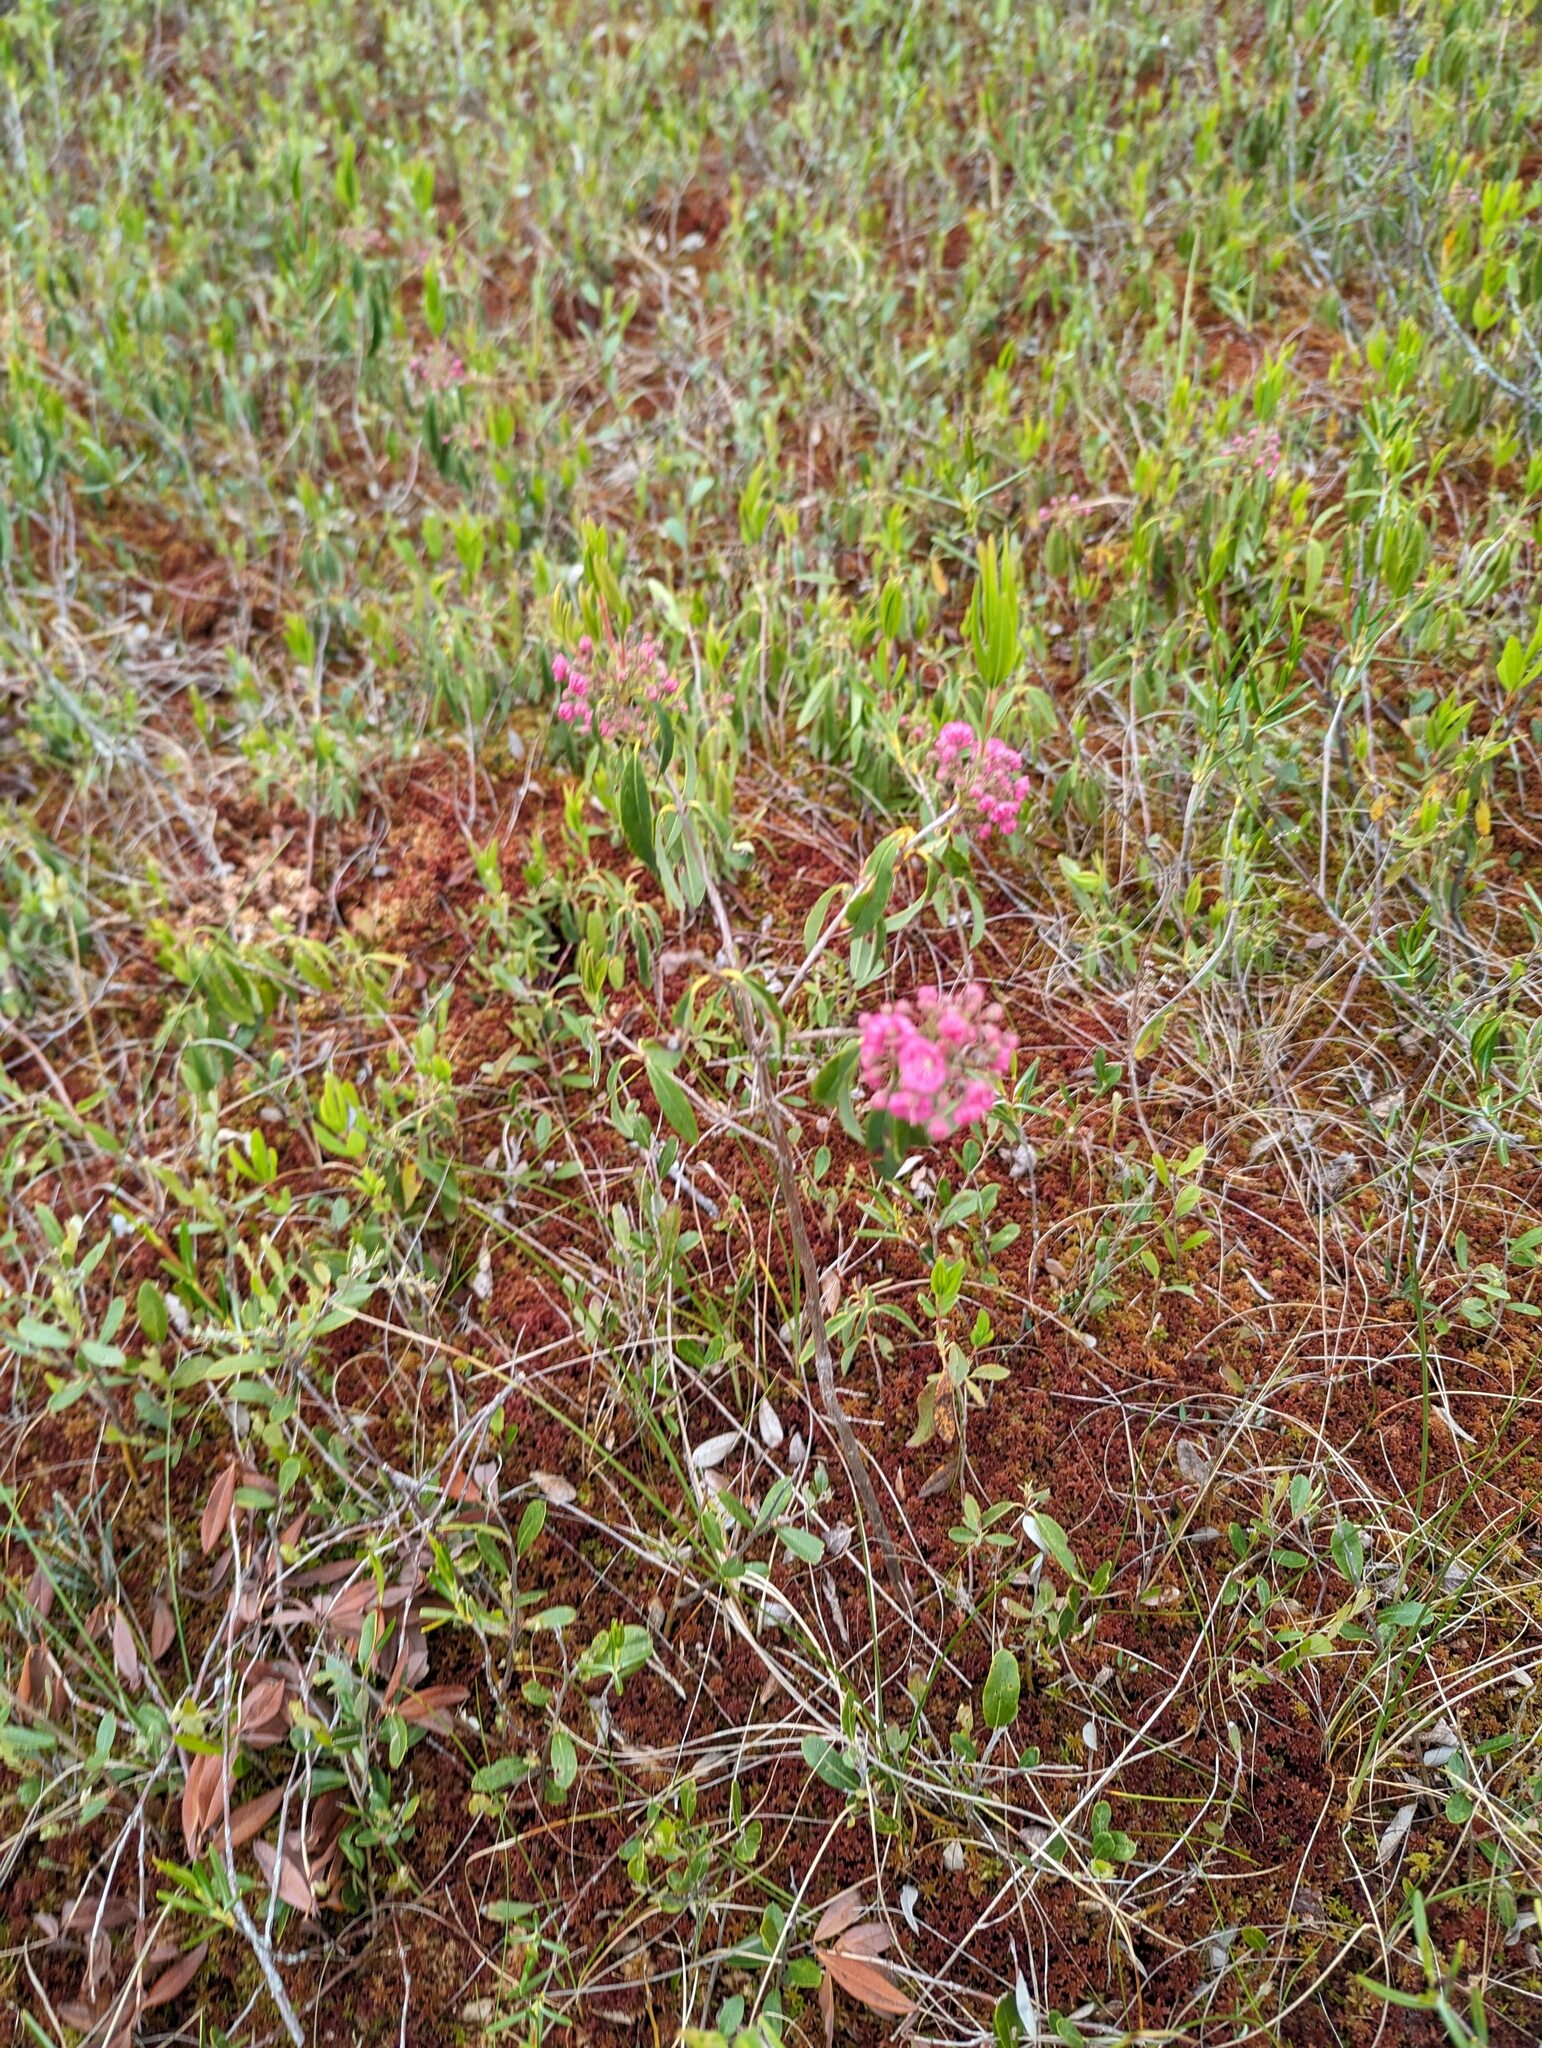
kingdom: Plantae
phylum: Tracheophyta
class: Magnoliopsida
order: Ericales
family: Ericaceae
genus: Kalmia
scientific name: Kalmia angustifolia
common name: Sheep-laurel
